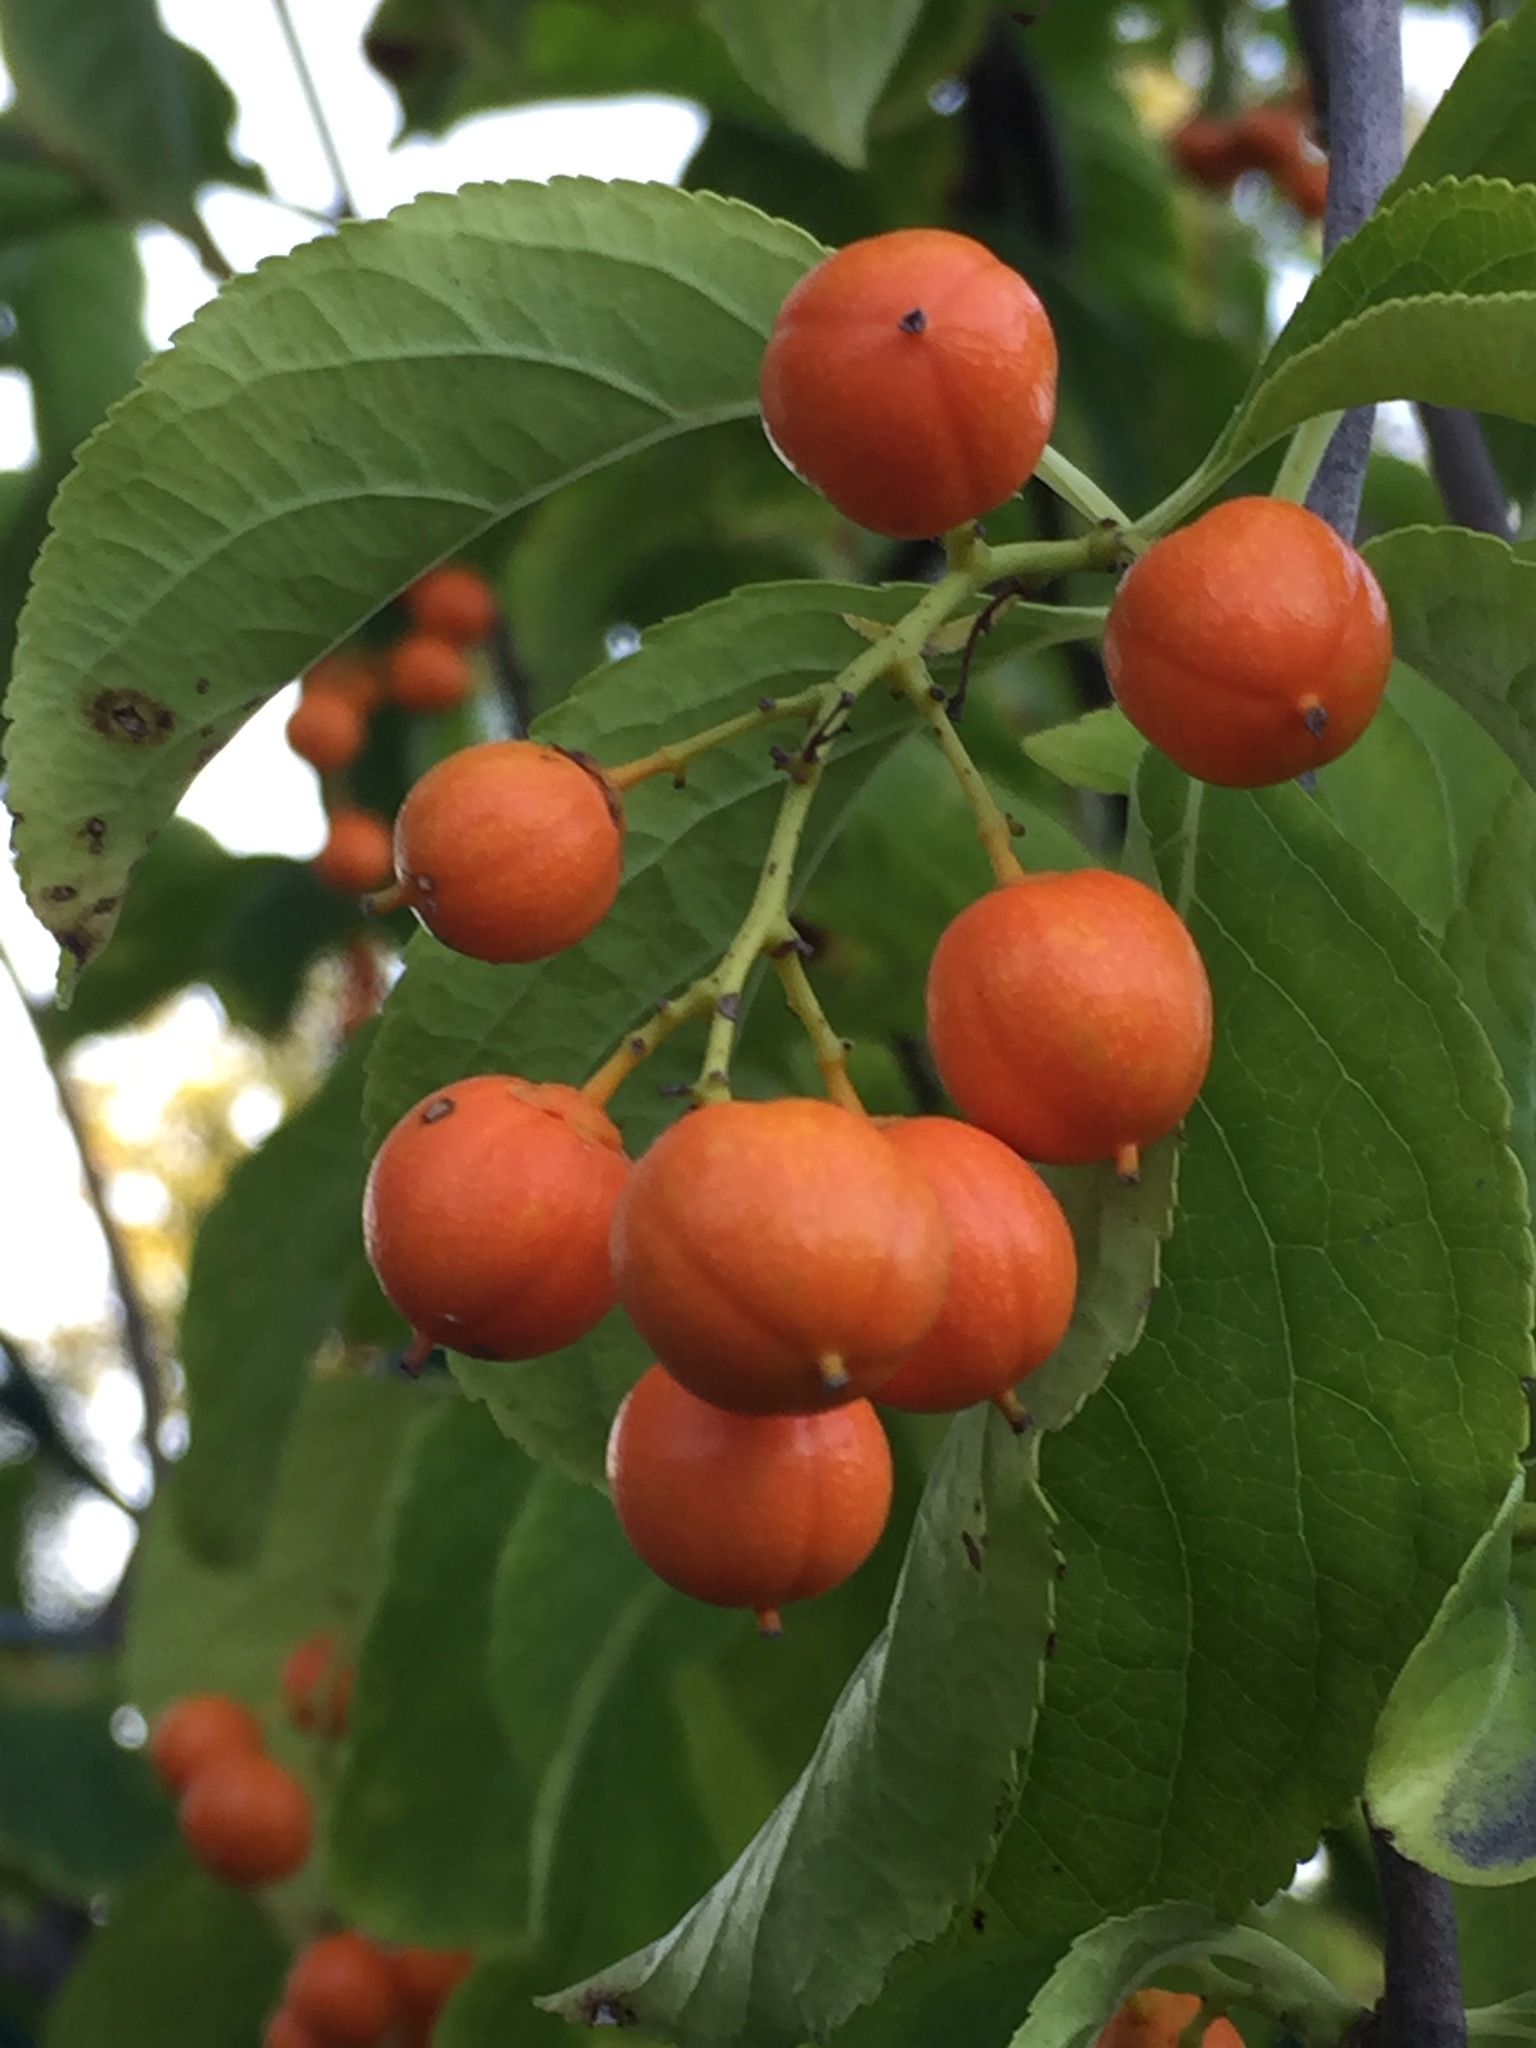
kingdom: Plantae
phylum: Tracheophyta
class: Magnoliopsida
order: Celastrales
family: Celastraceae
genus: Celastrus
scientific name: Celastrus scandens
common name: American bittersweet
